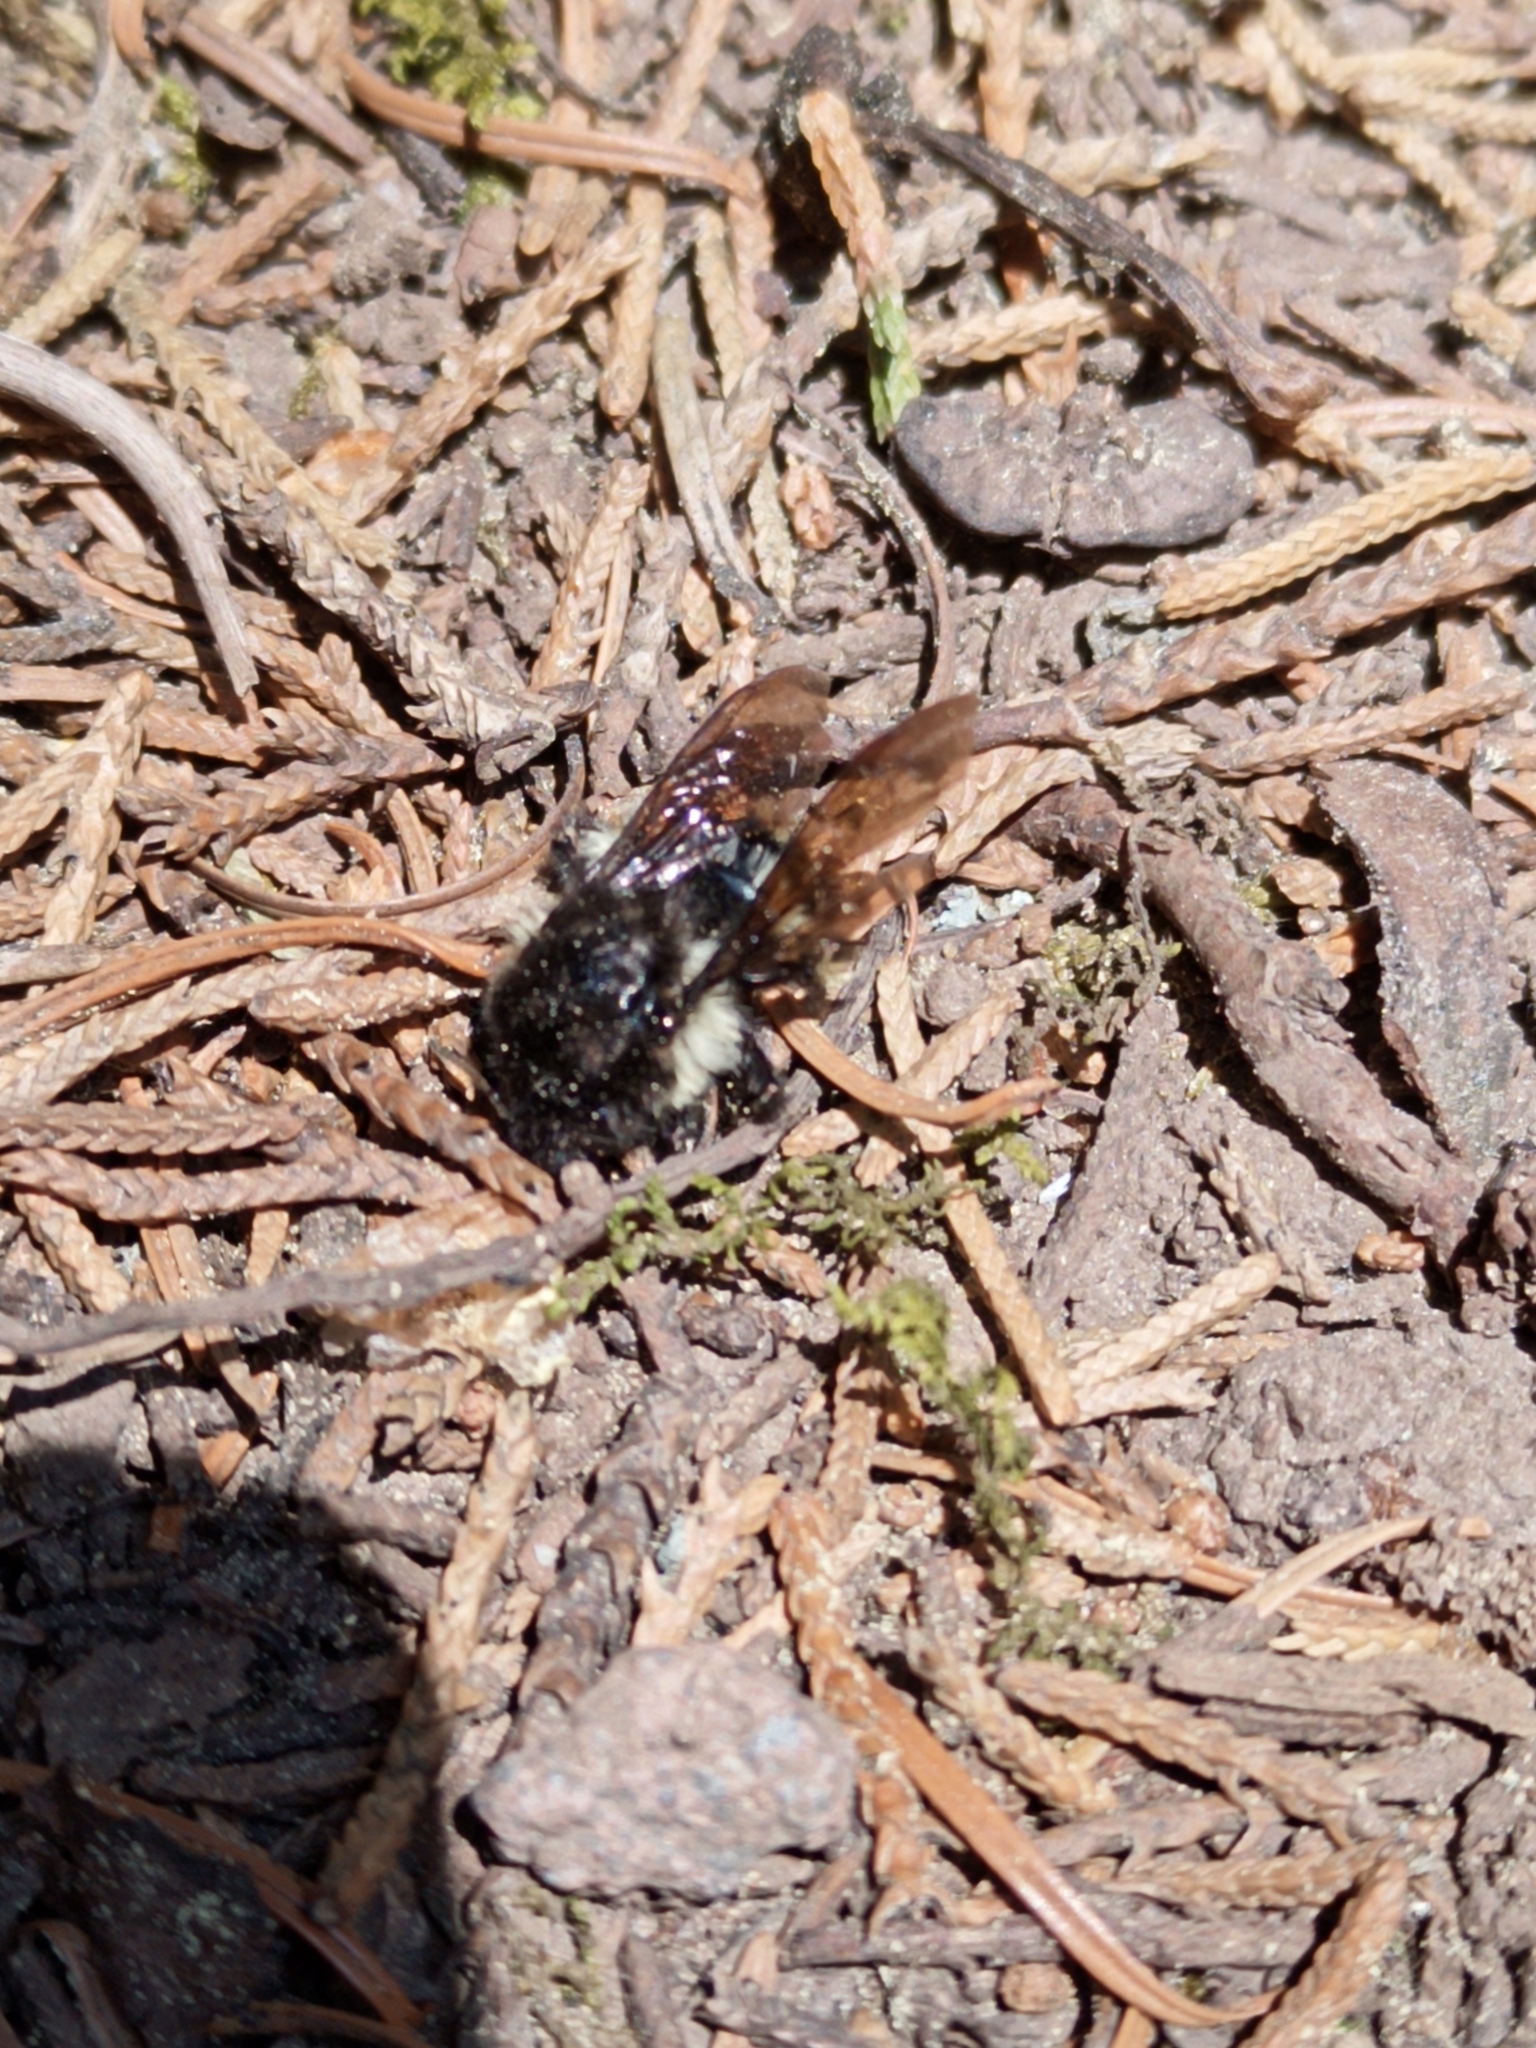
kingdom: Animalia
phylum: Arthropoda
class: Insecta
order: Hymenoptera
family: Apidae
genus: Bombus
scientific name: Bombus ephippiatus
